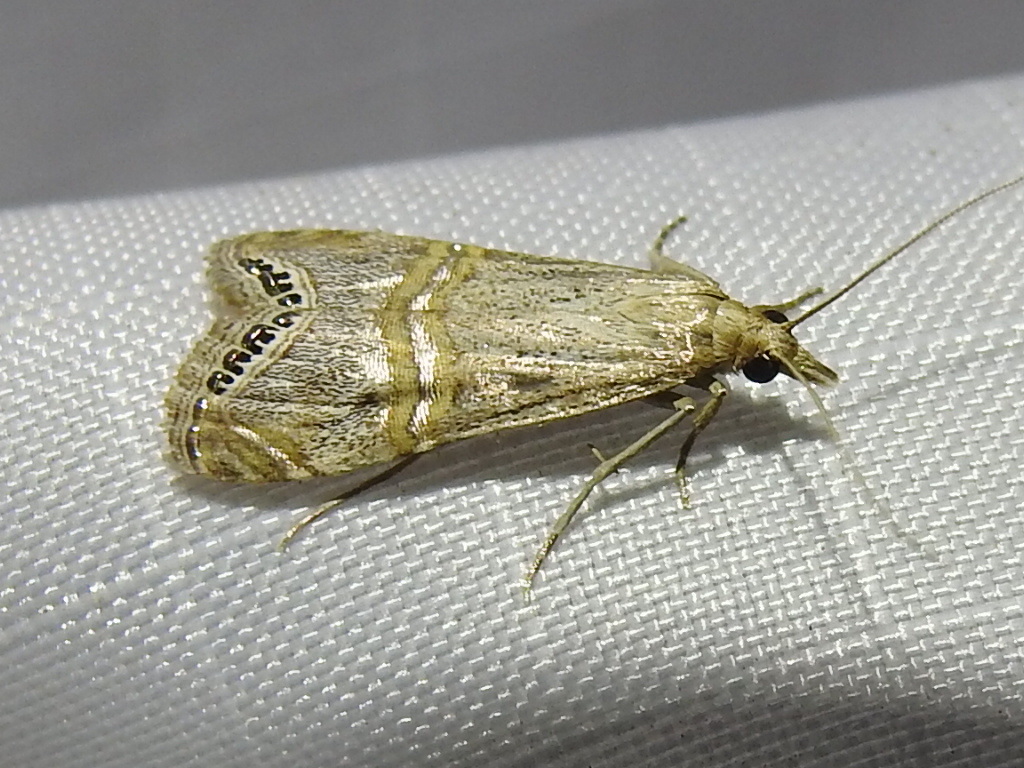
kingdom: Animalia
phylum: Arthropoda
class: Insecta
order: Lepidoptera
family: Crambidae
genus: Euchromius
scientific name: Euchromius ocellea
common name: Necklace veneer moth
